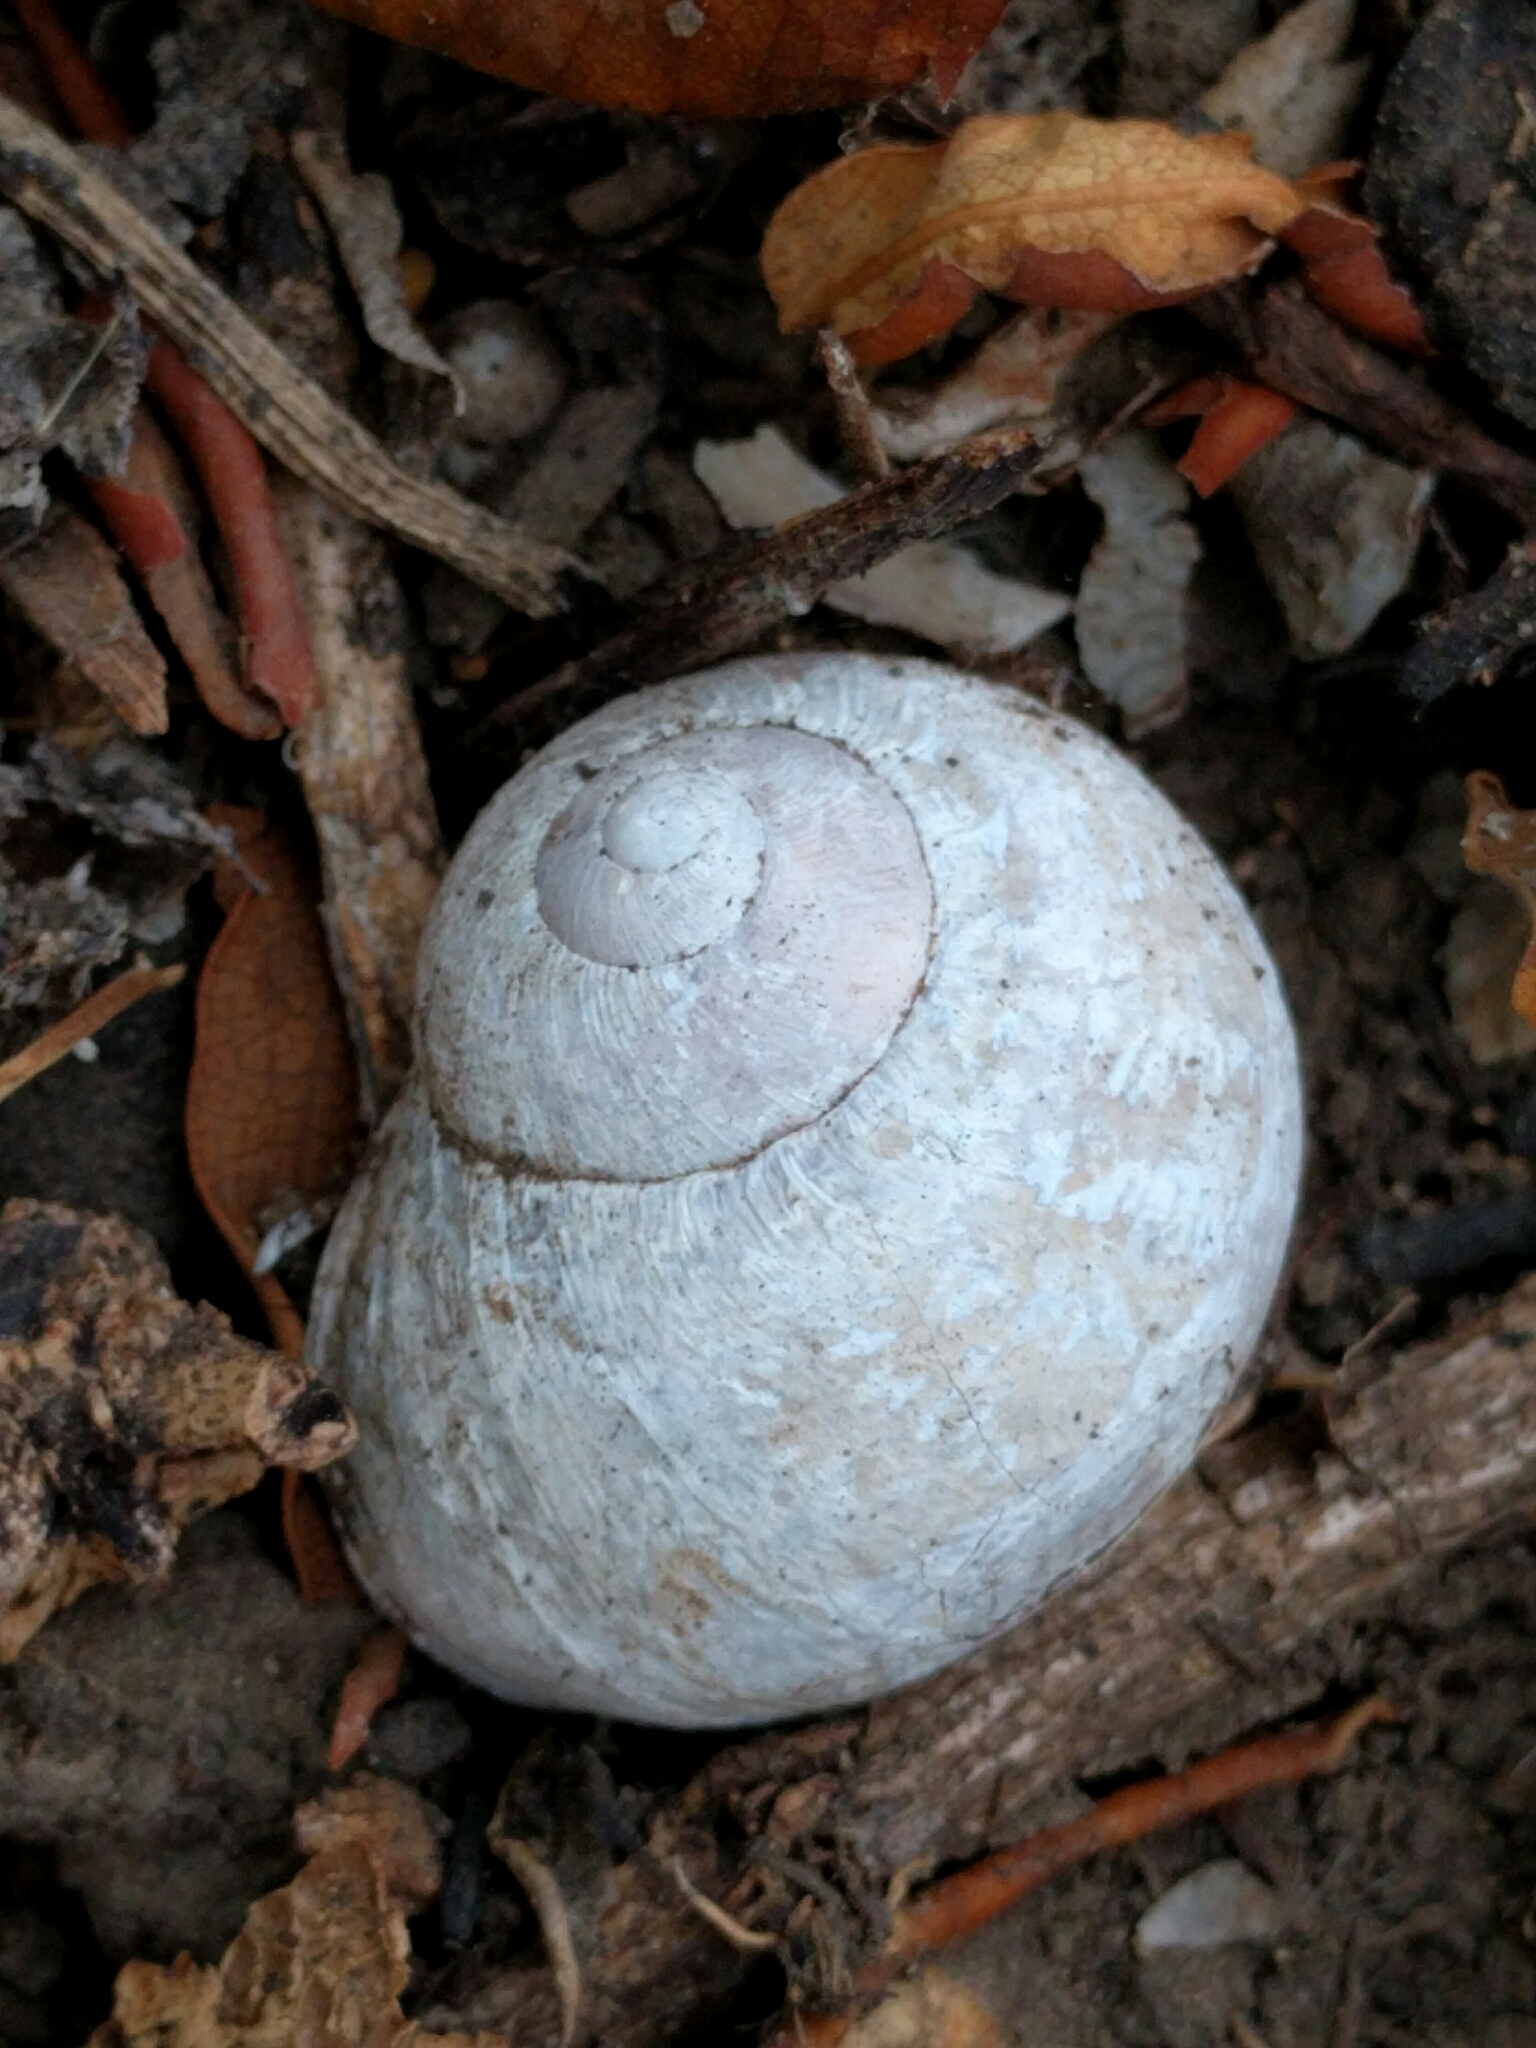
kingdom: Animalia
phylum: Mollusca
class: Gastropoda
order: Stylommatophora
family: Helicidae
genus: Cornu
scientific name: Cornu aspersum
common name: Brown garden snail
